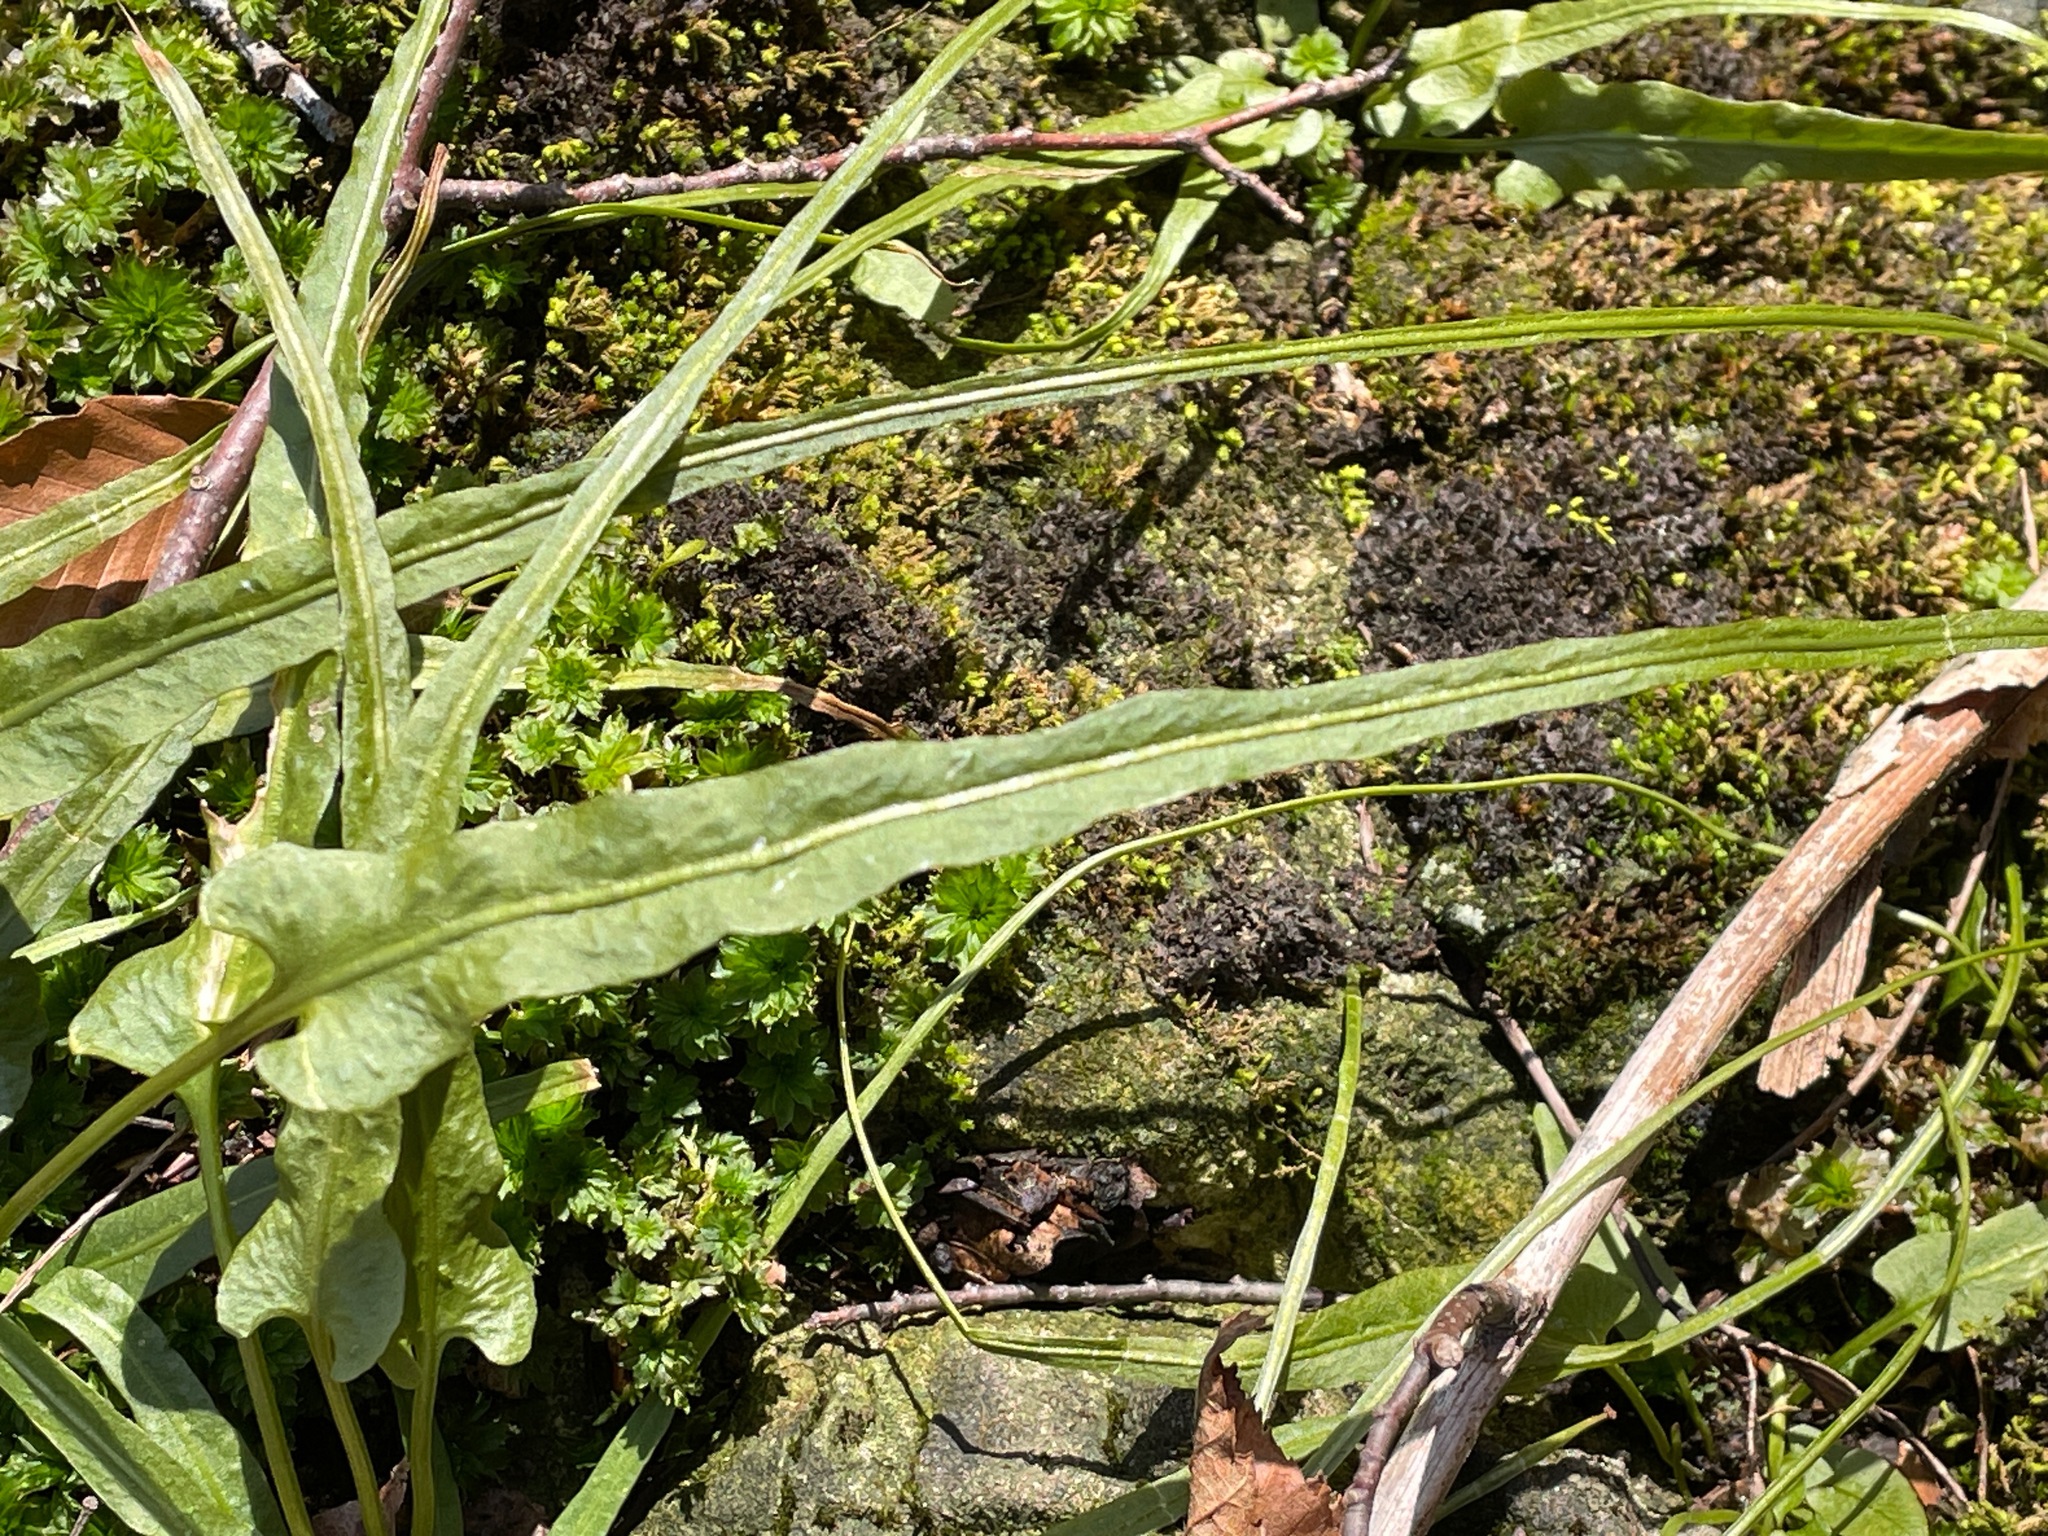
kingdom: Plantae
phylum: Tracheophyta
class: Polypodiopsida
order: Polypodiales
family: Aspleniaceae
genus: Asplenium
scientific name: Asplenium rhizophyllum
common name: Walking fern
